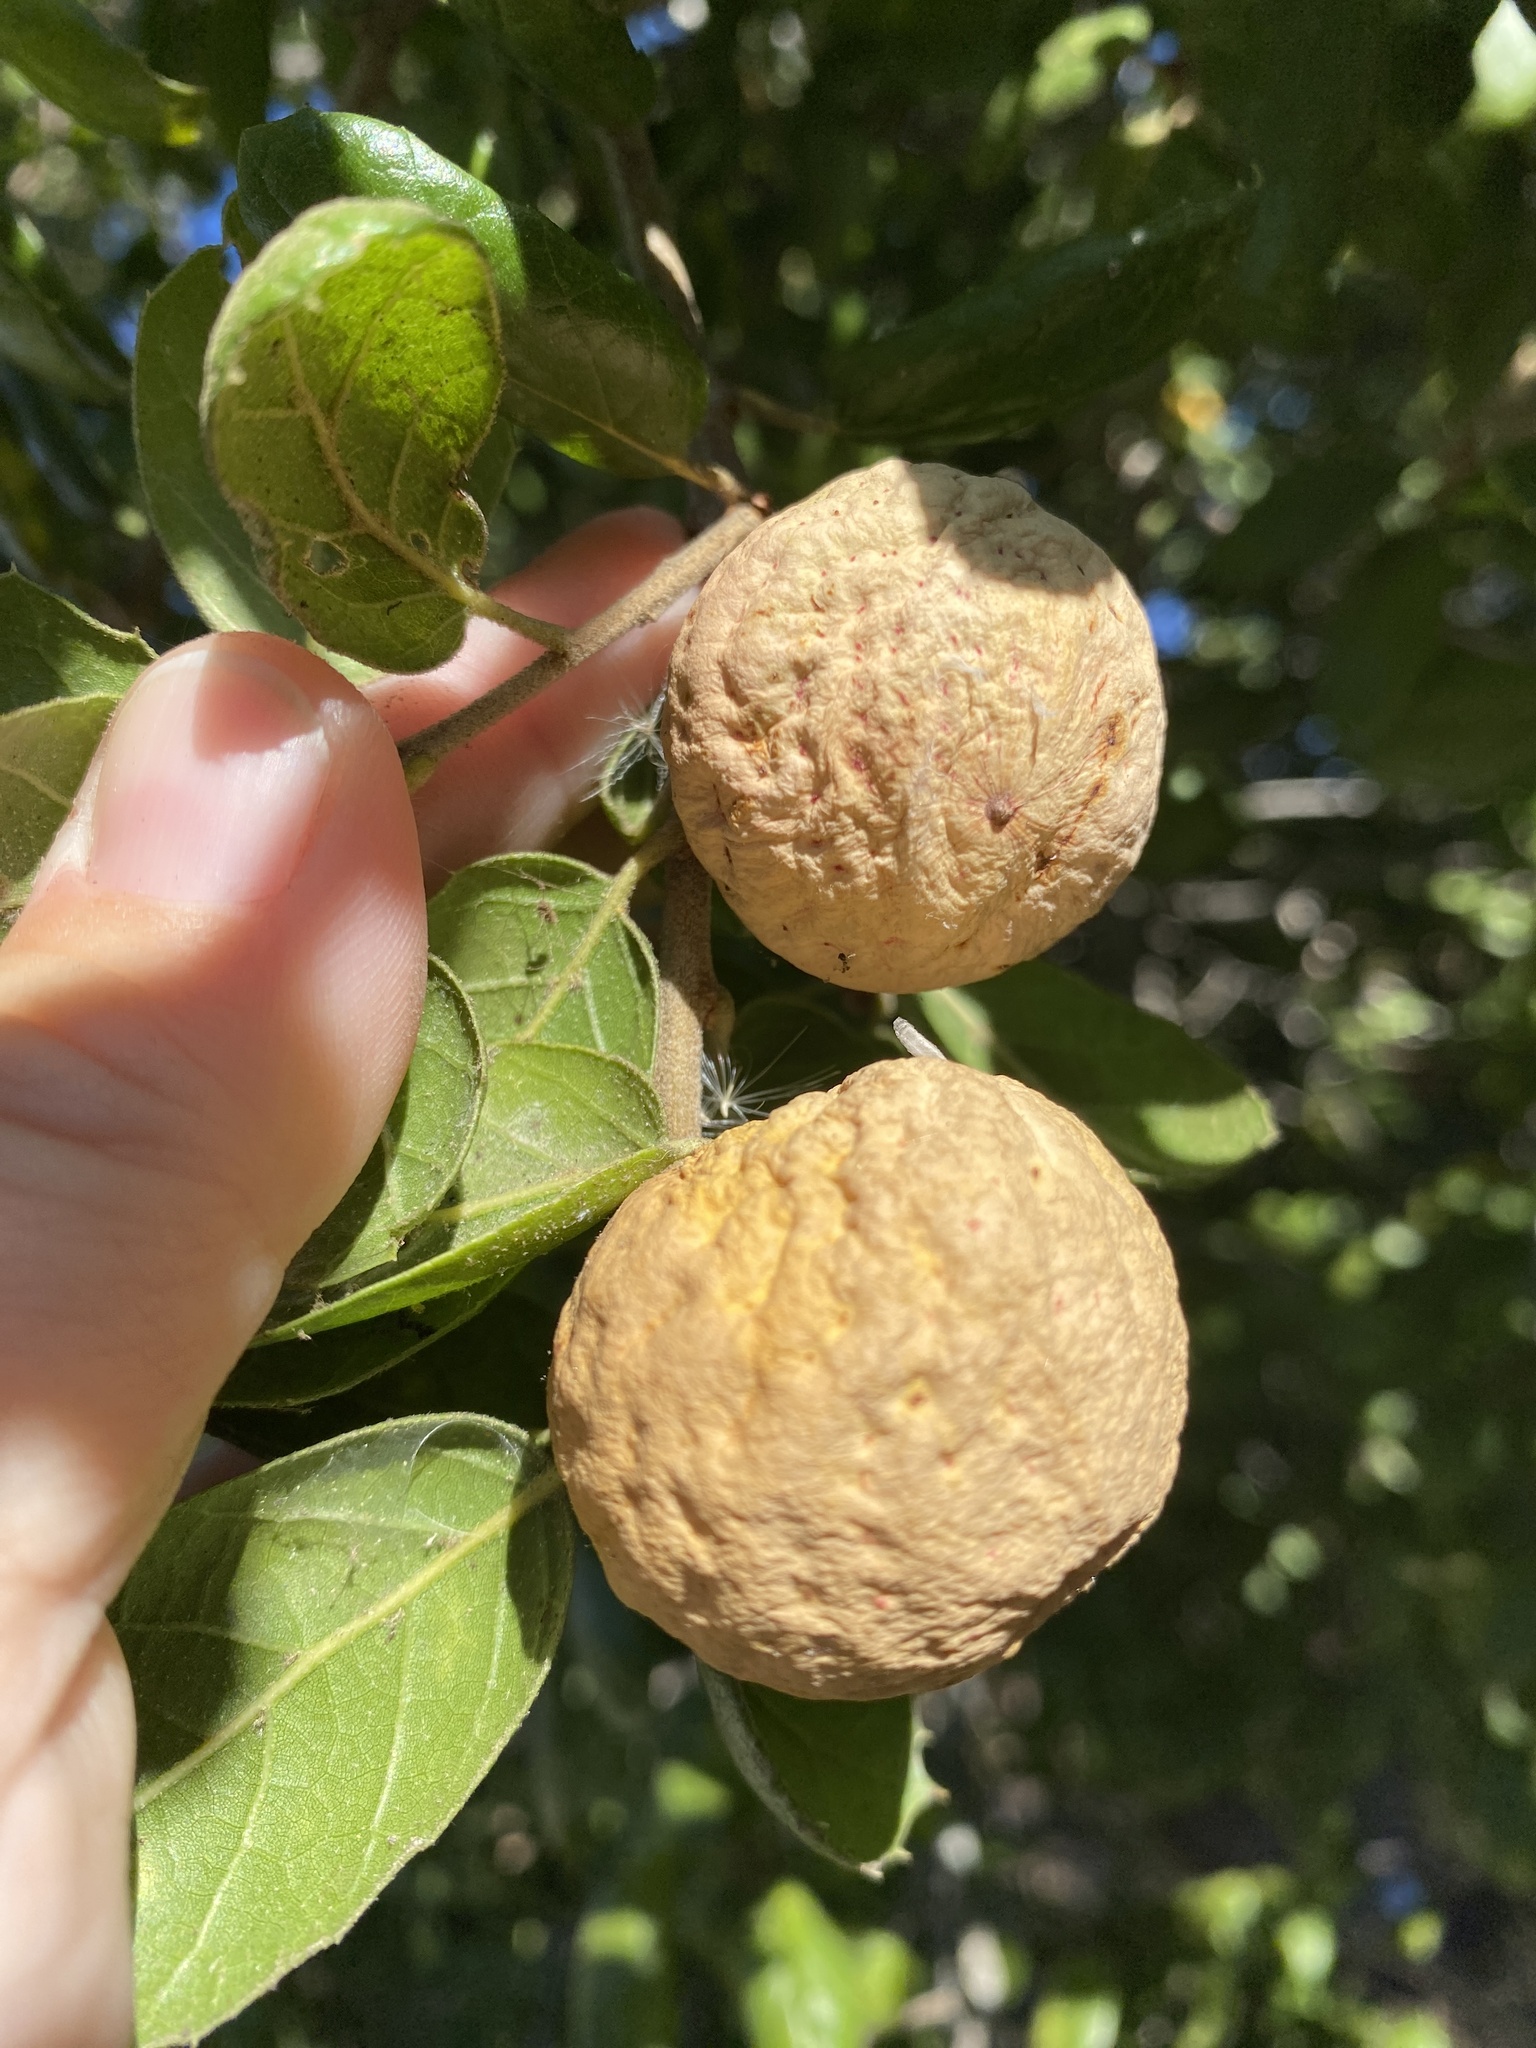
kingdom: Animalia
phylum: Arthropoda
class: Insecta
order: Hymenoptera
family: Cynipidae
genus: Amphibolips
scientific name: Amphibolips quercuspomiformis
